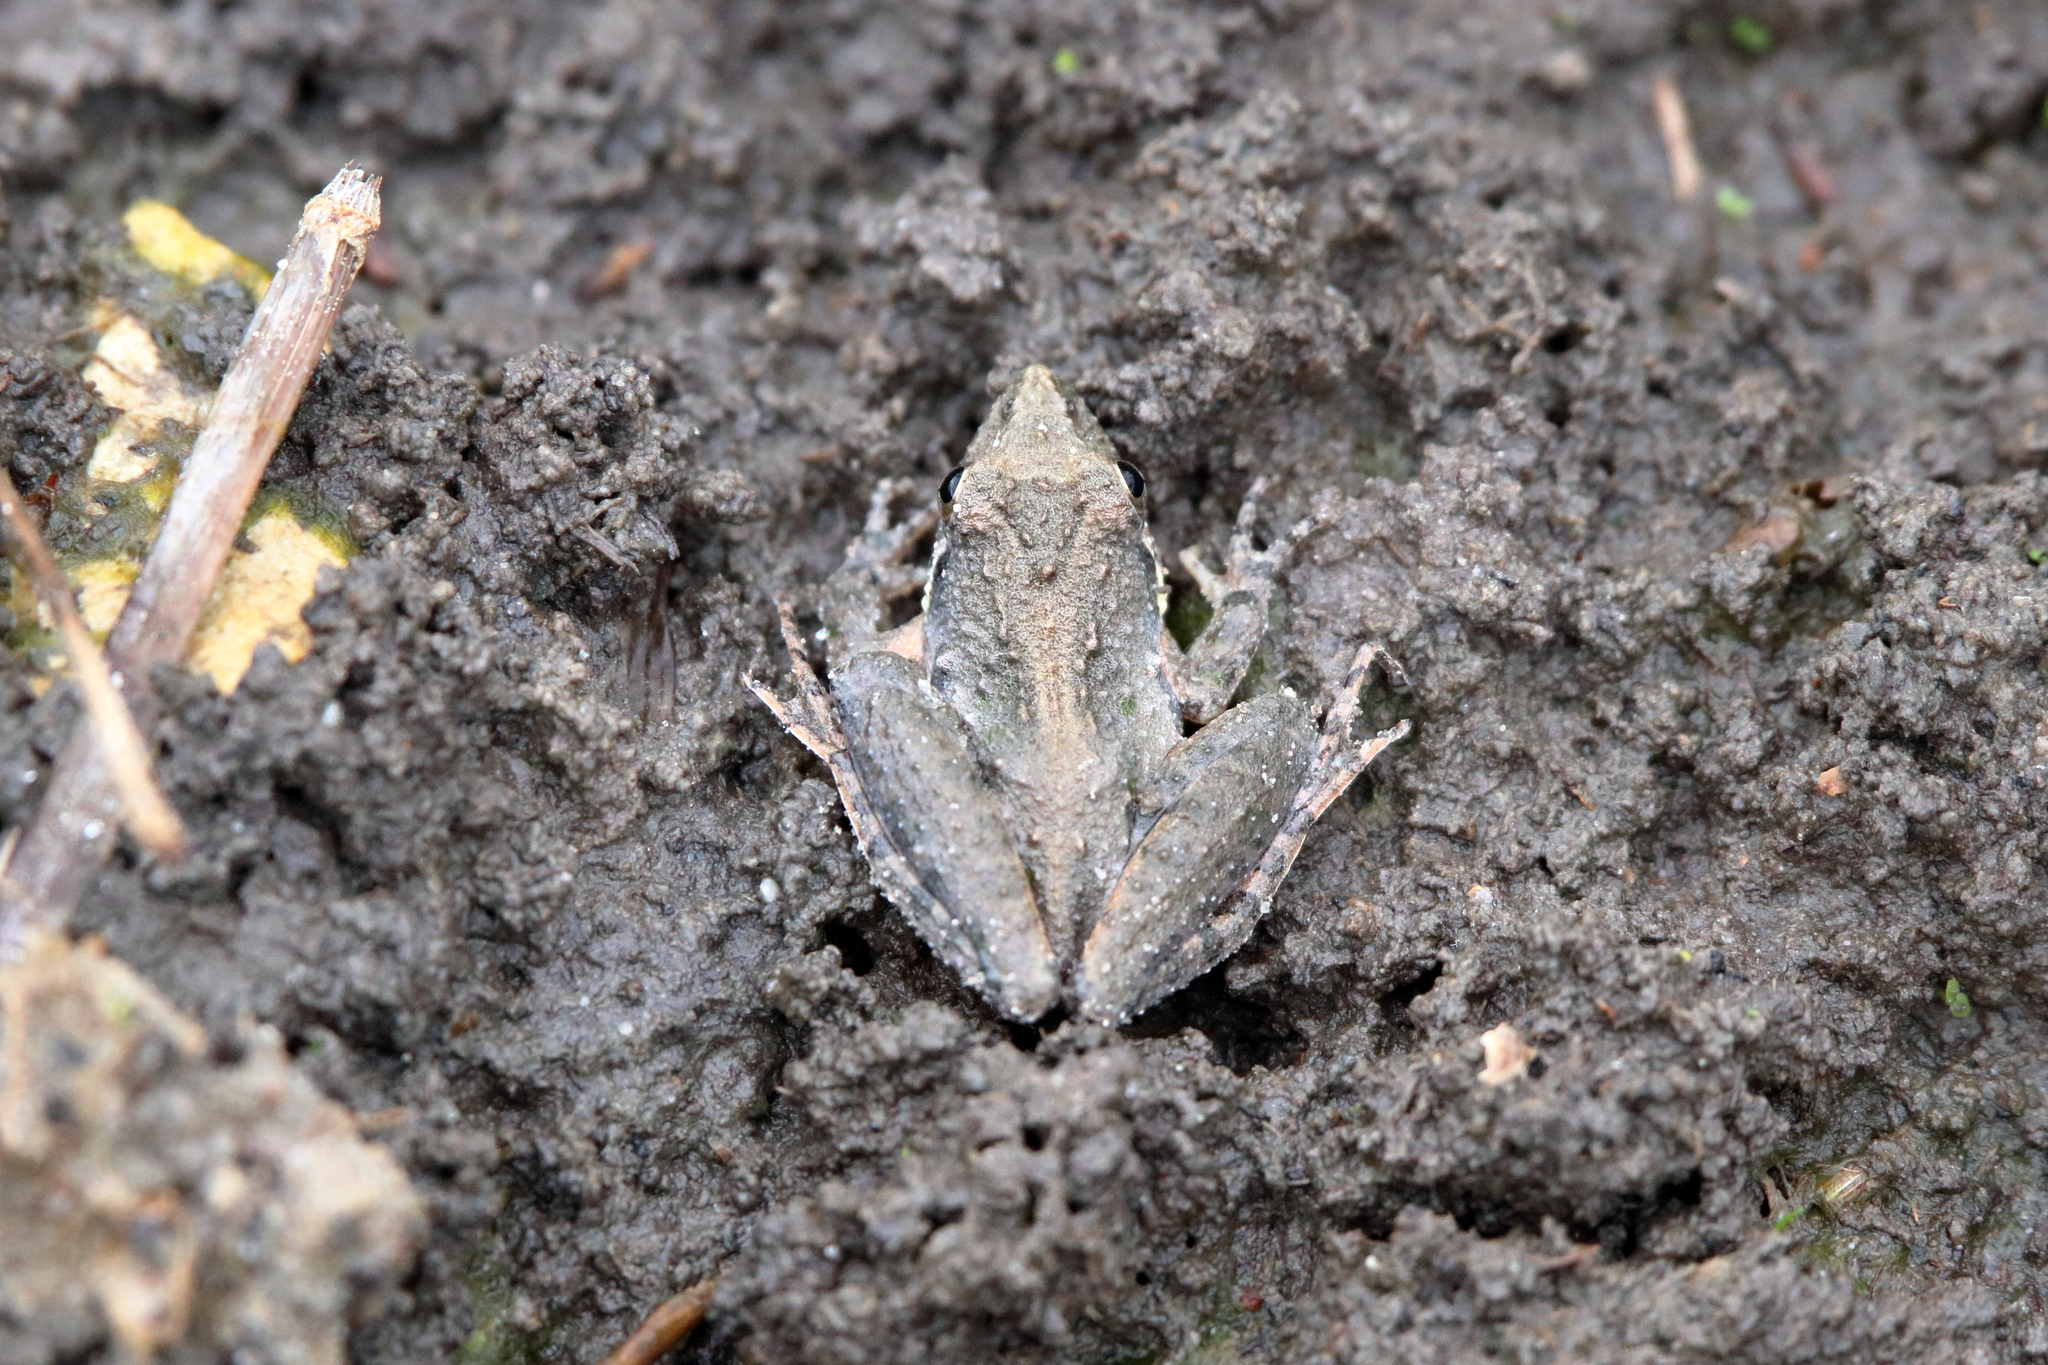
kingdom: Animalia
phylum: Chordata
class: Amphibia
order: Anura
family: Hylidae
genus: Acris
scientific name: Acris gryllus
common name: Southern cricket frog
